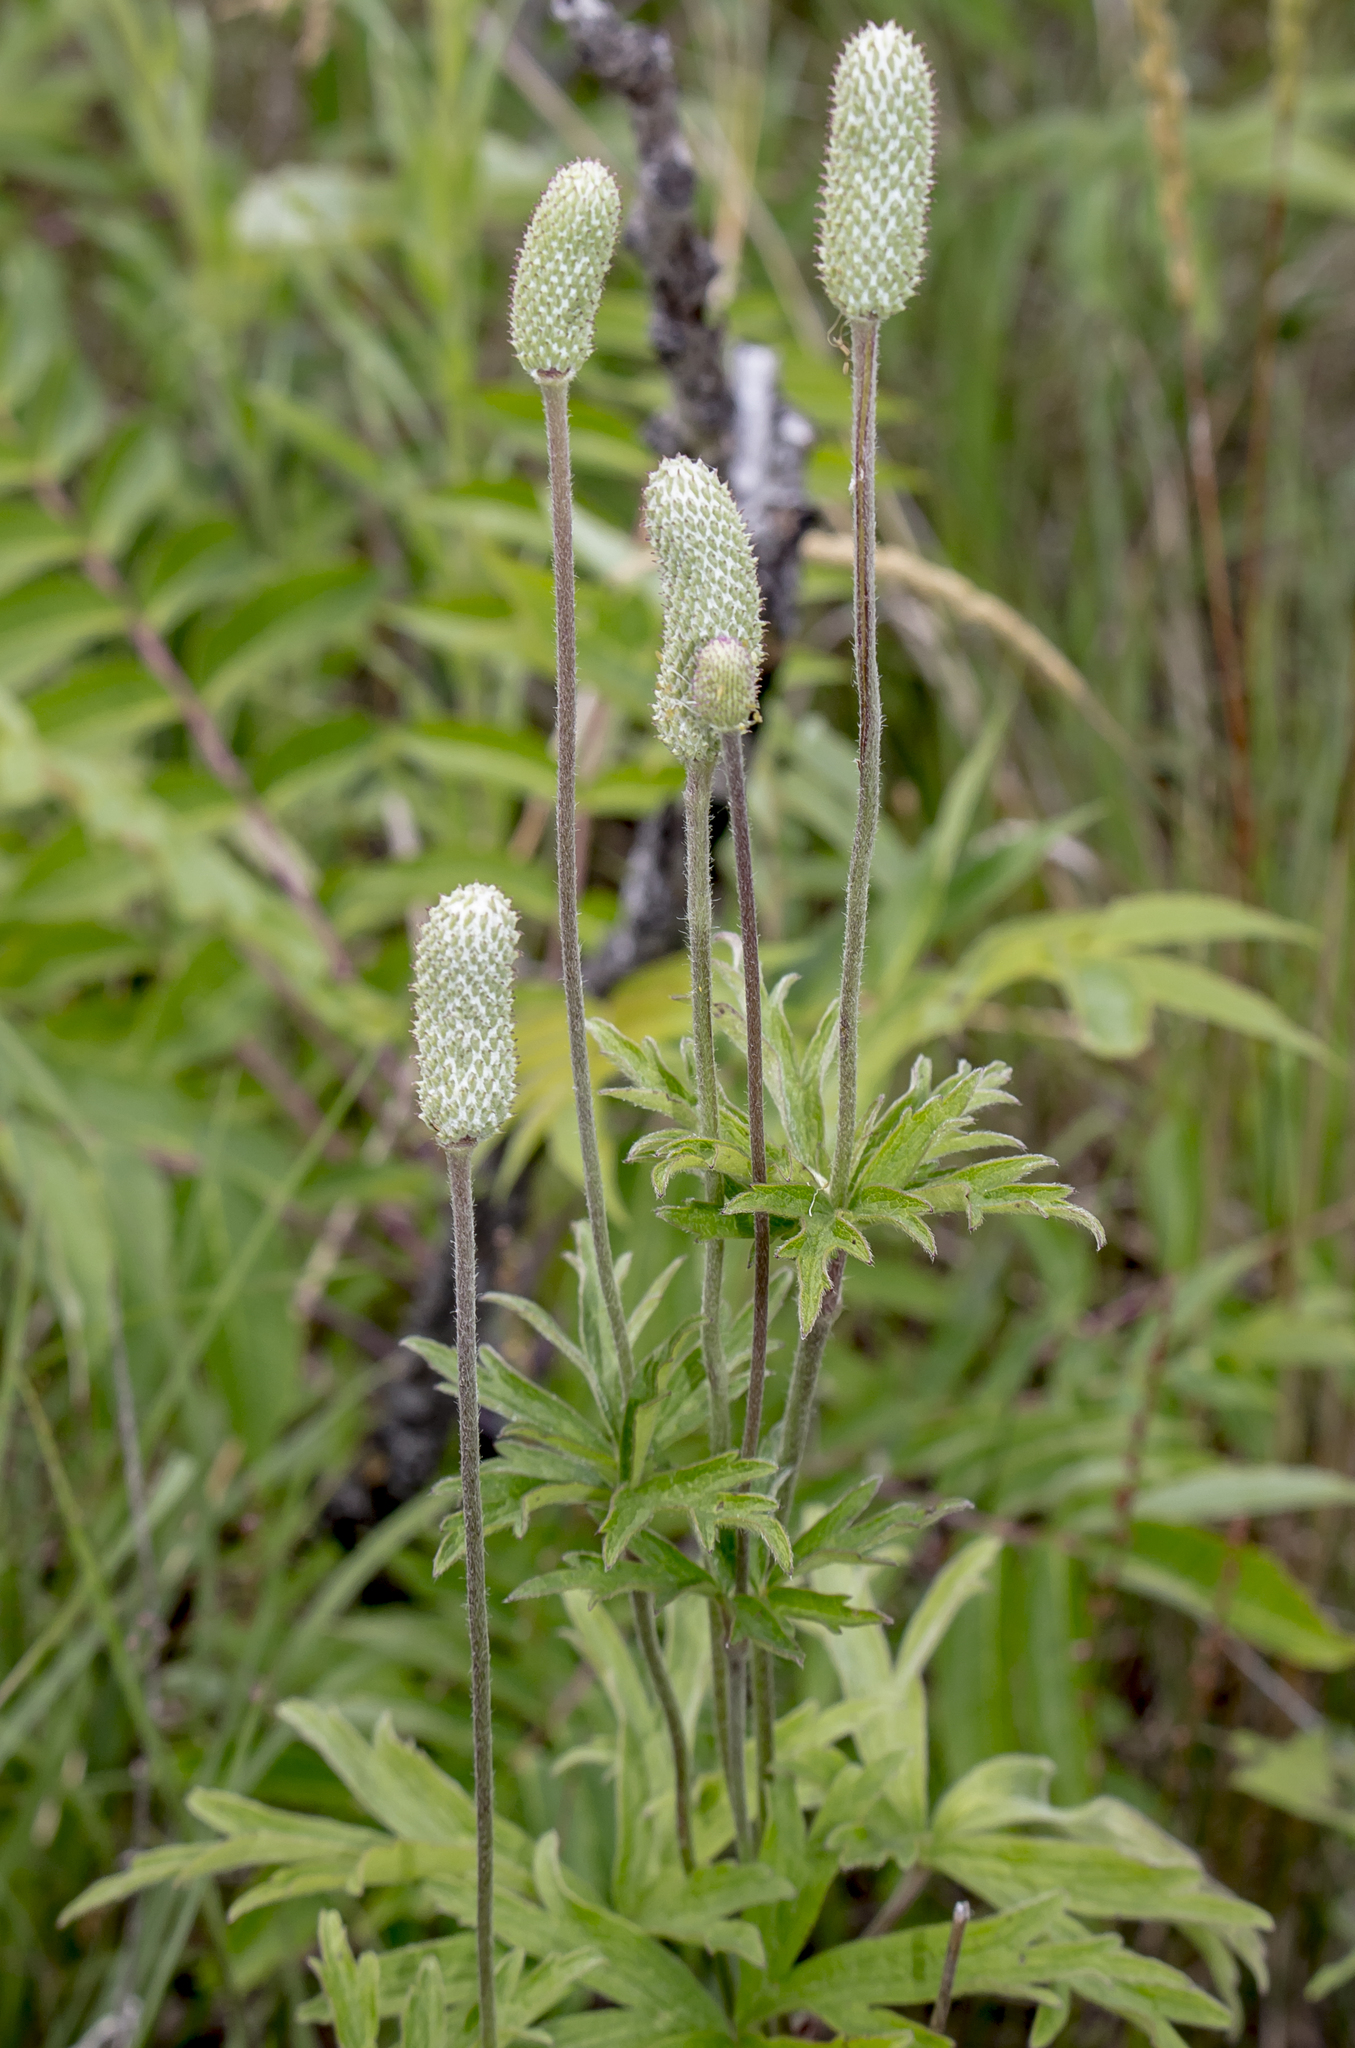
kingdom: Plantae
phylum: Tracheophyta
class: Magnoliopsida
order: Ranunculales
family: Ranunculaceae
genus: Anemone
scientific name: Anemone cylindrica
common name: Candle anemone
